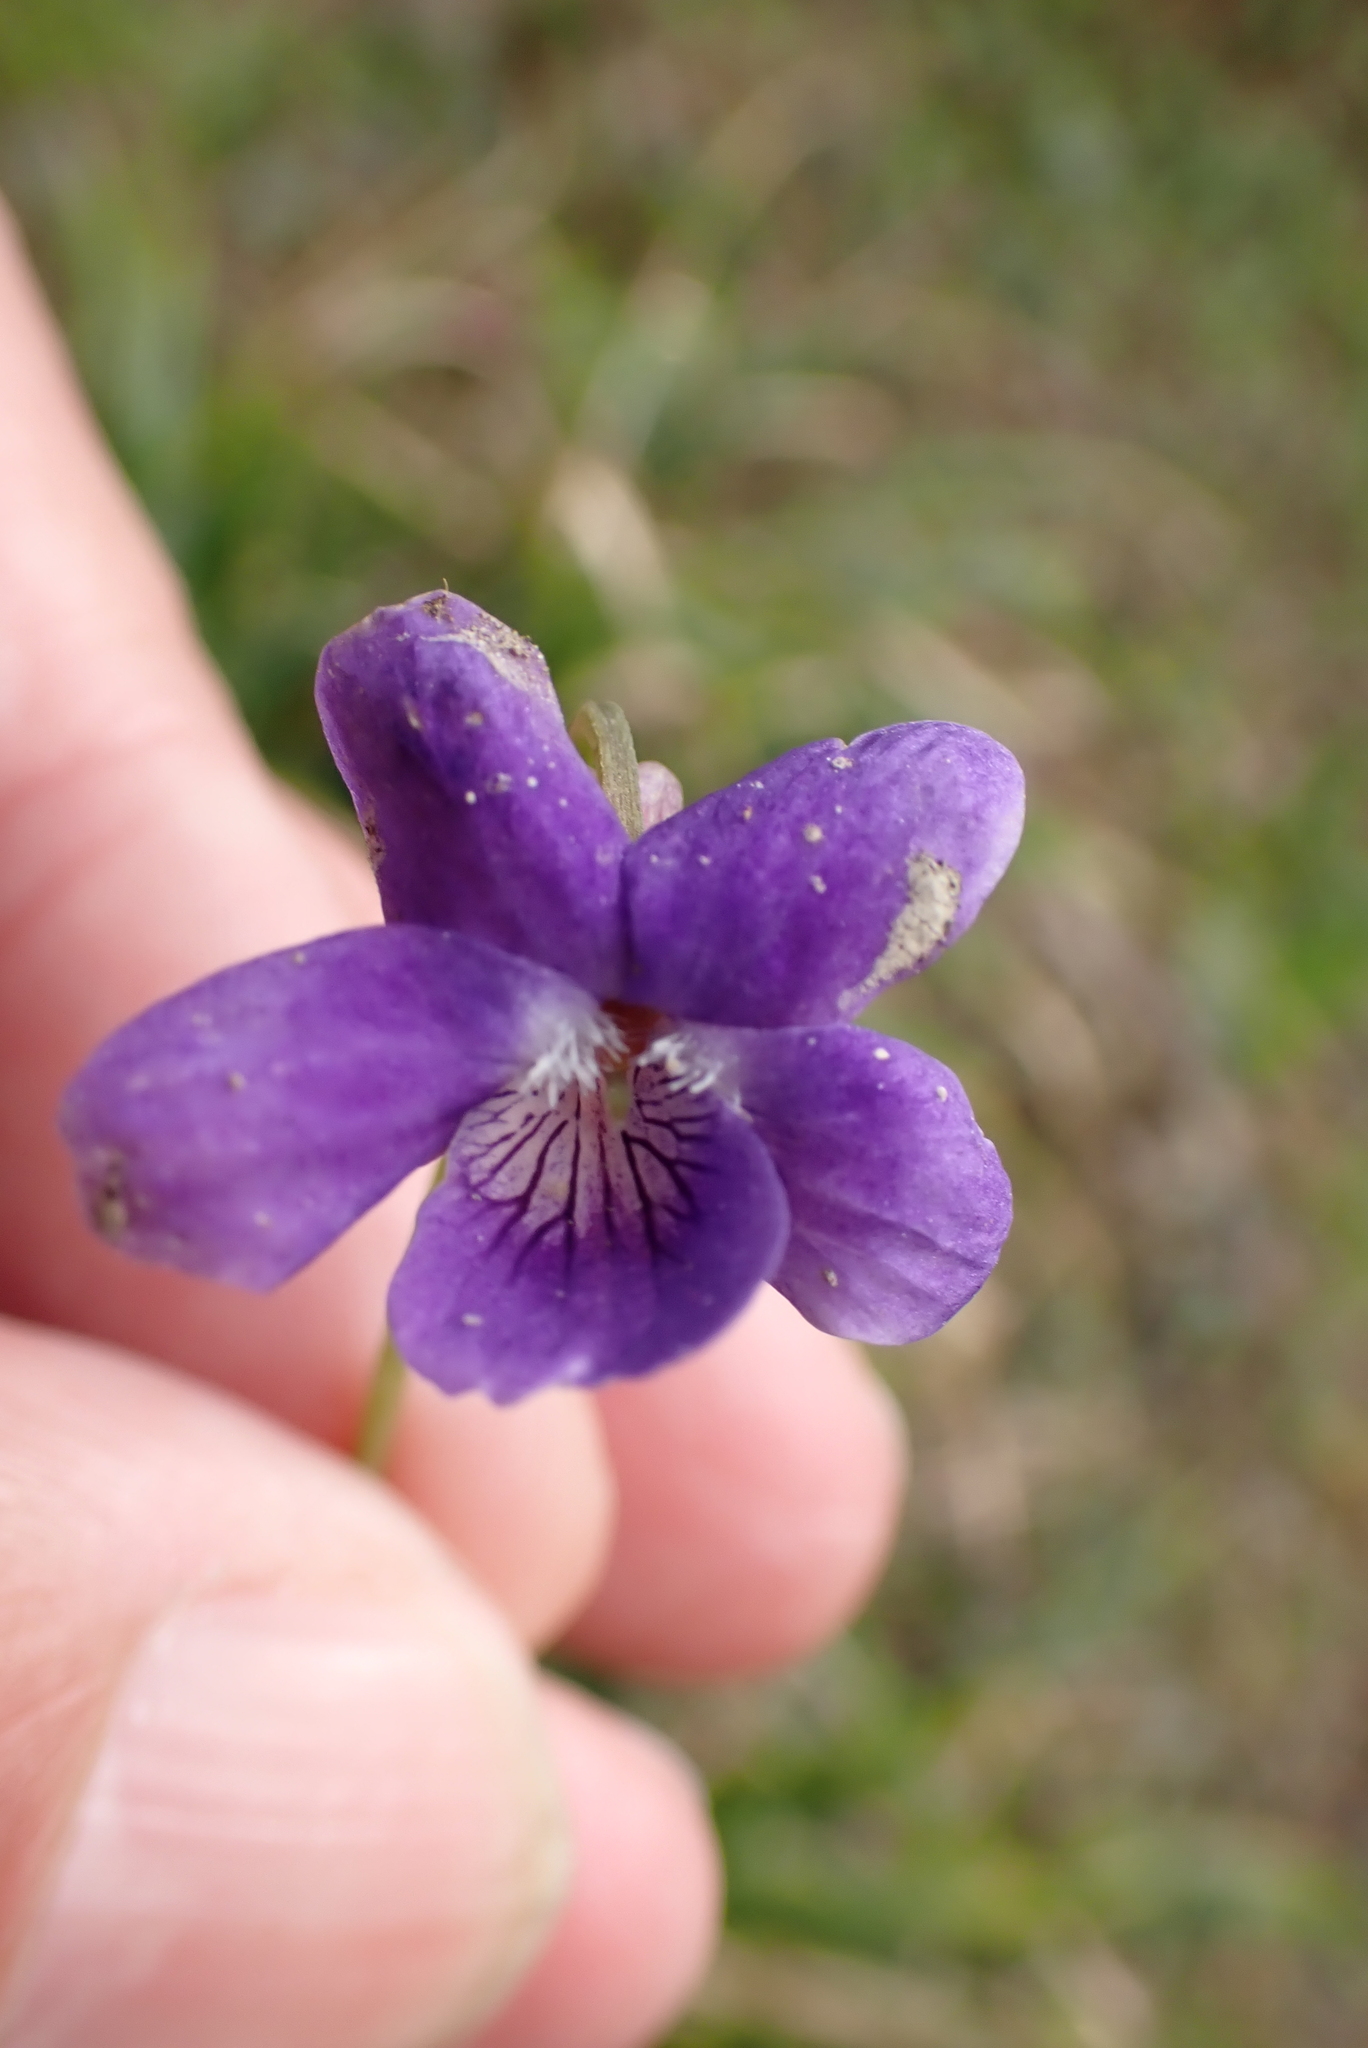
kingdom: Plantae
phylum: Tracheophyta
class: Magnoliopsida
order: Malpighiales
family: Violaceae
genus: Viola
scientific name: Viola riviniana
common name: Common dog-violet
